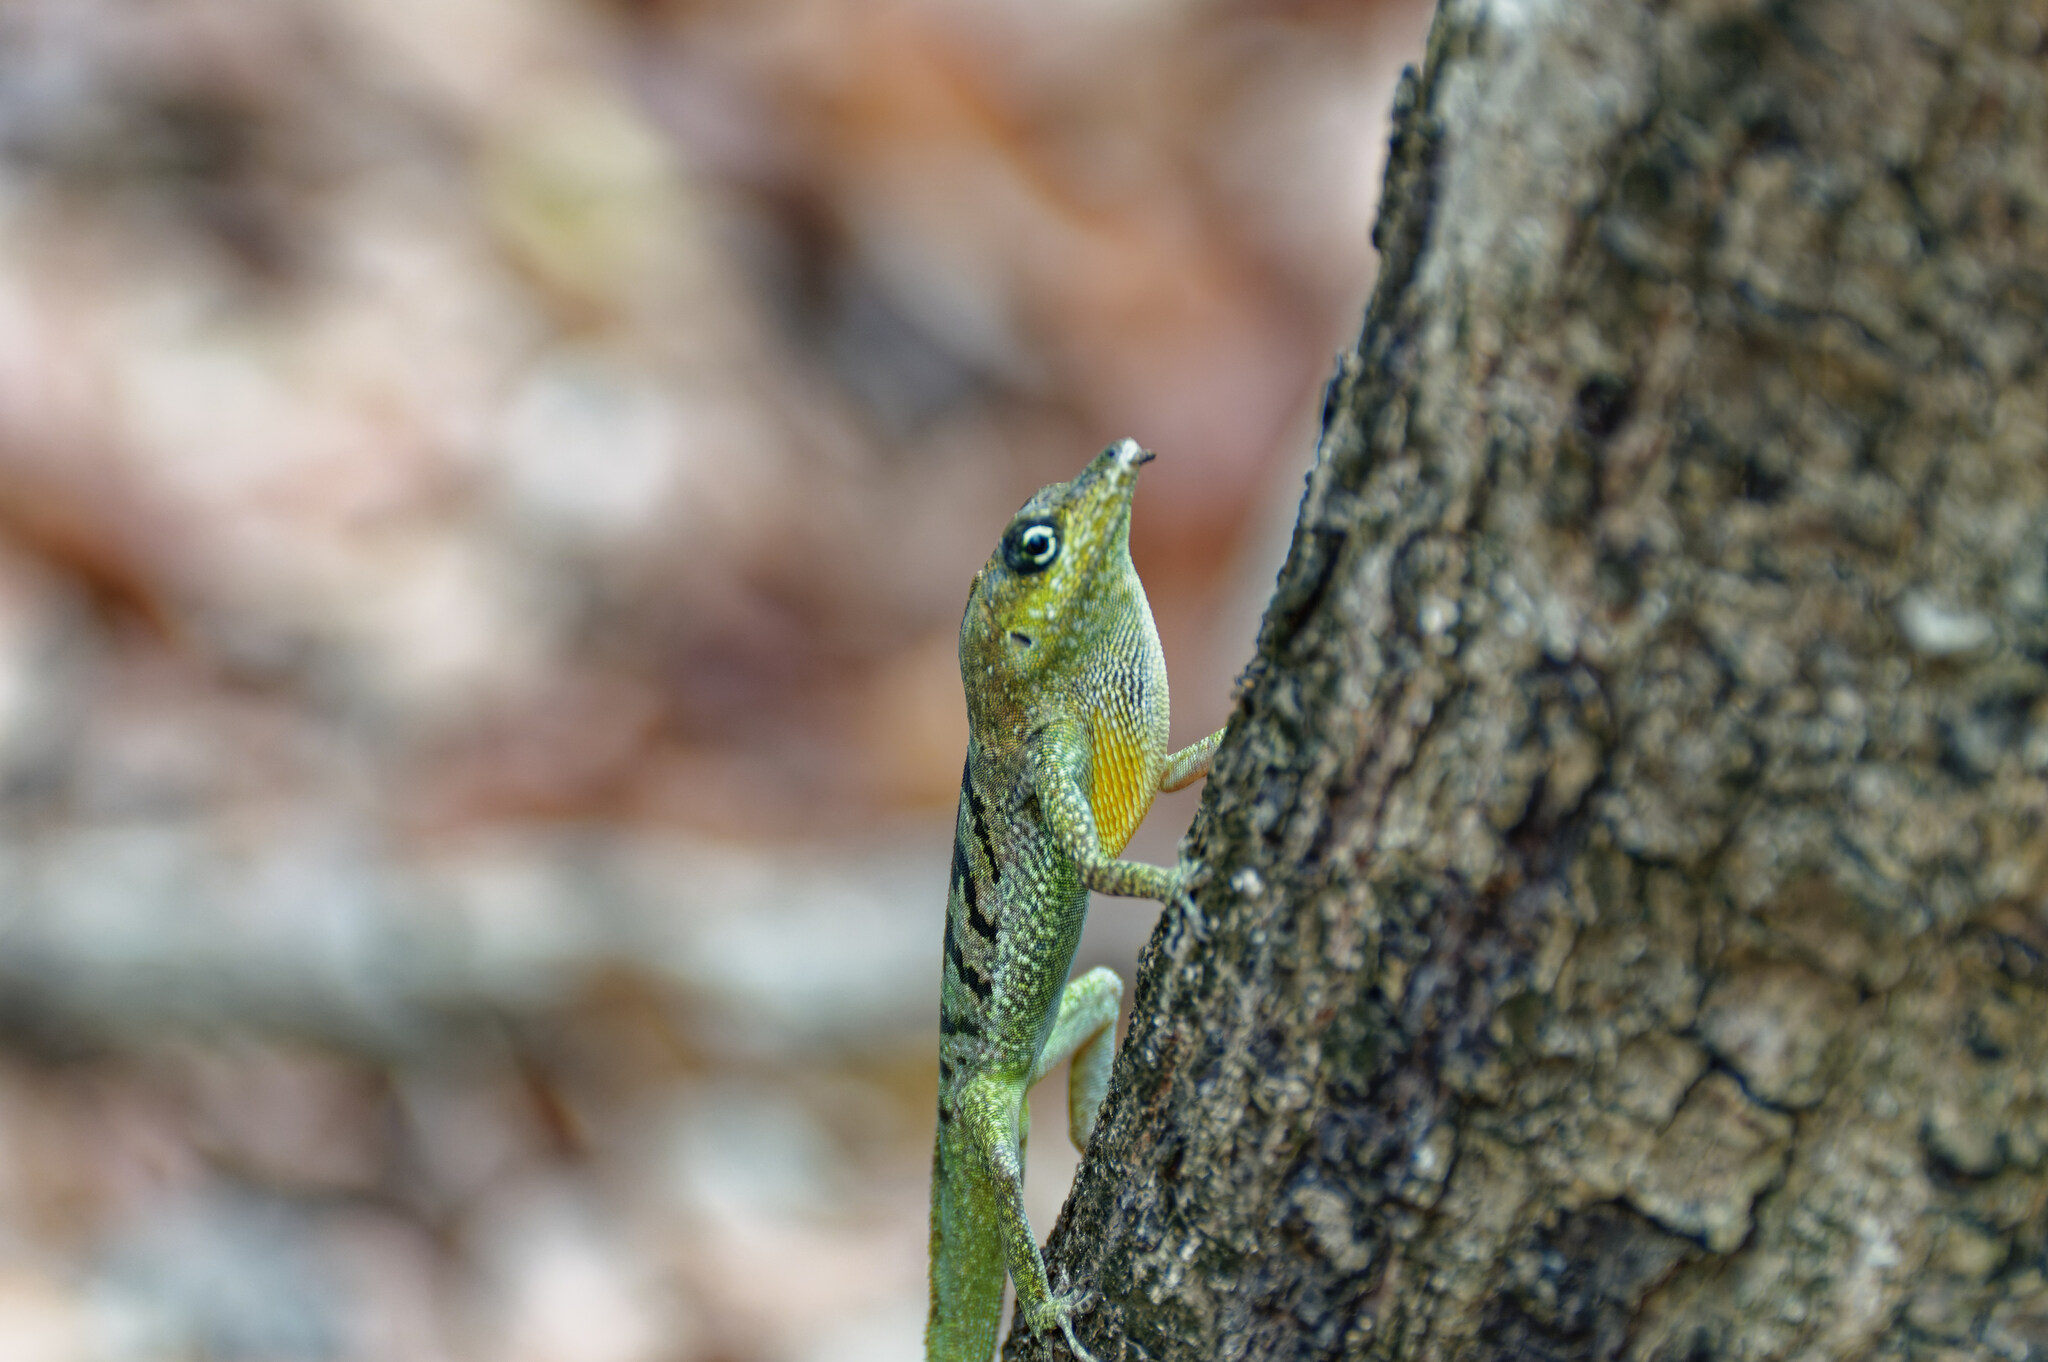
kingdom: Animalia
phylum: Chordata
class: Squamata
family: Dactyloidae
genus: Anolis
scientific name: Anolis roquet
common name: Martinique anole
